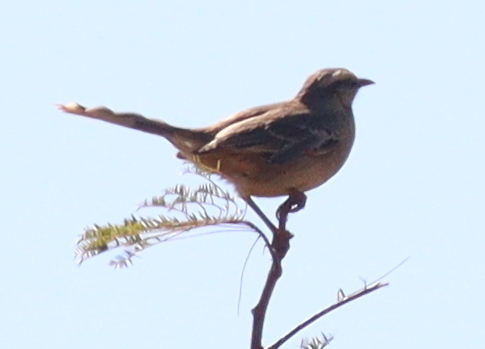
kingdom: Animalia
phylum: Chordata
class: Aves
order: Passeriformes
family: Mimidae
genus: Mimus
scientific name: Mimus saturninus
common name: Chalk-browed mockingbird
